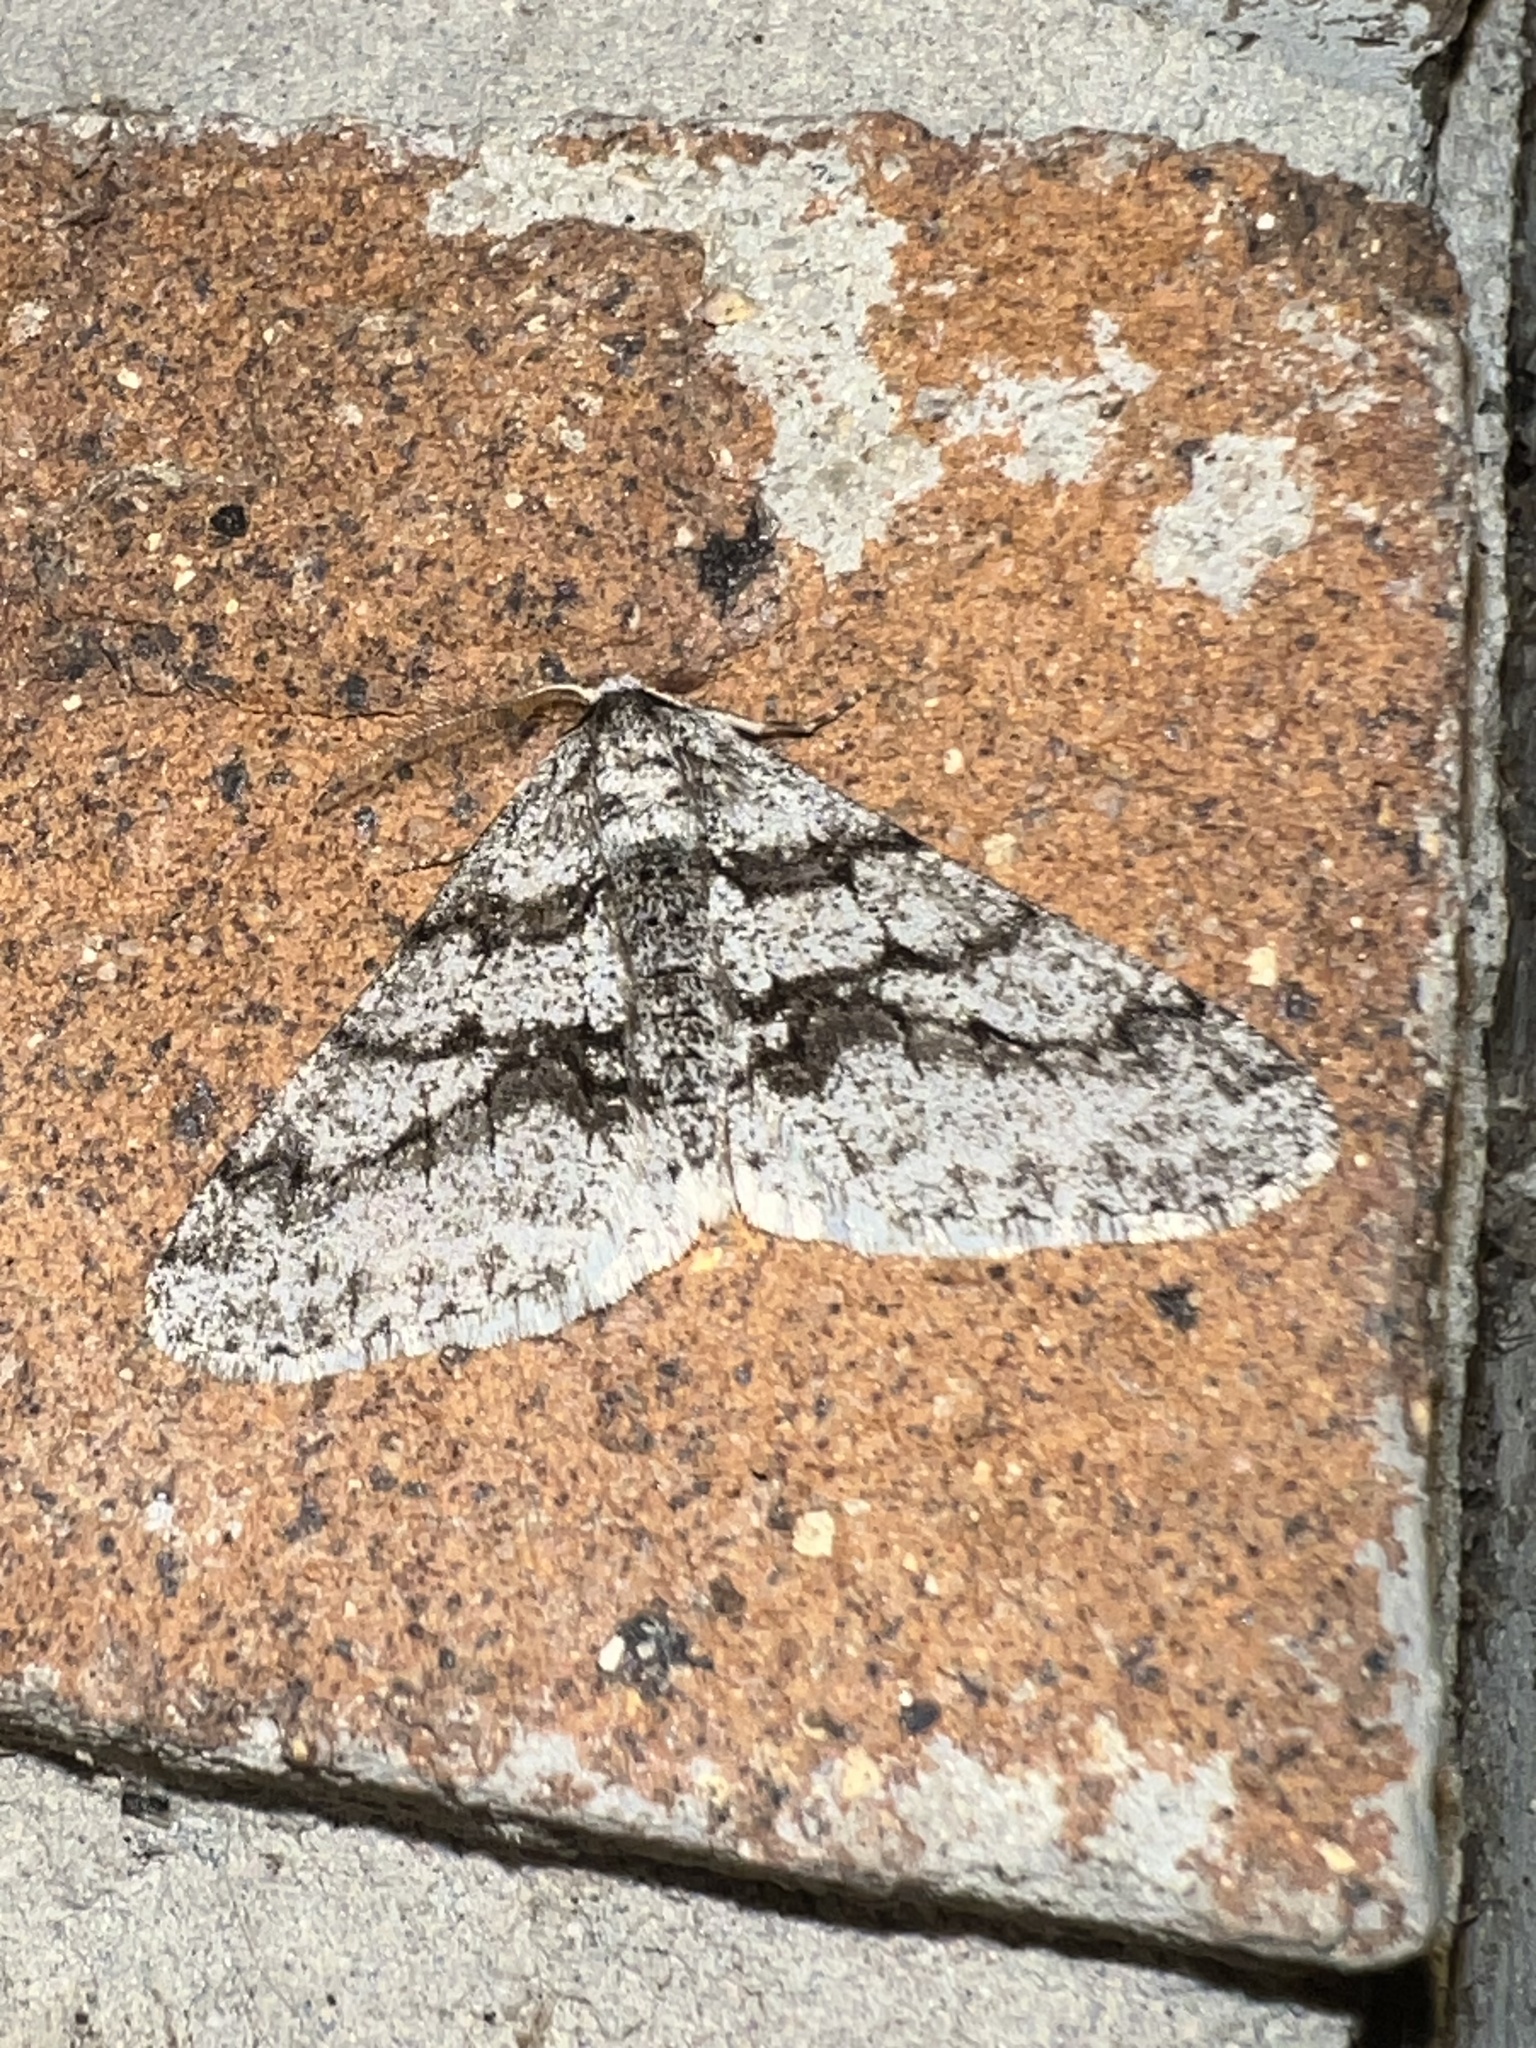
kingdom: Animalia
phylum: Arthropoda
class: Insecta
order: Lepidoptera
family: Geometridae
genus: Phigalia
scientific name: Phigalia titea
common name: Spiny looper
